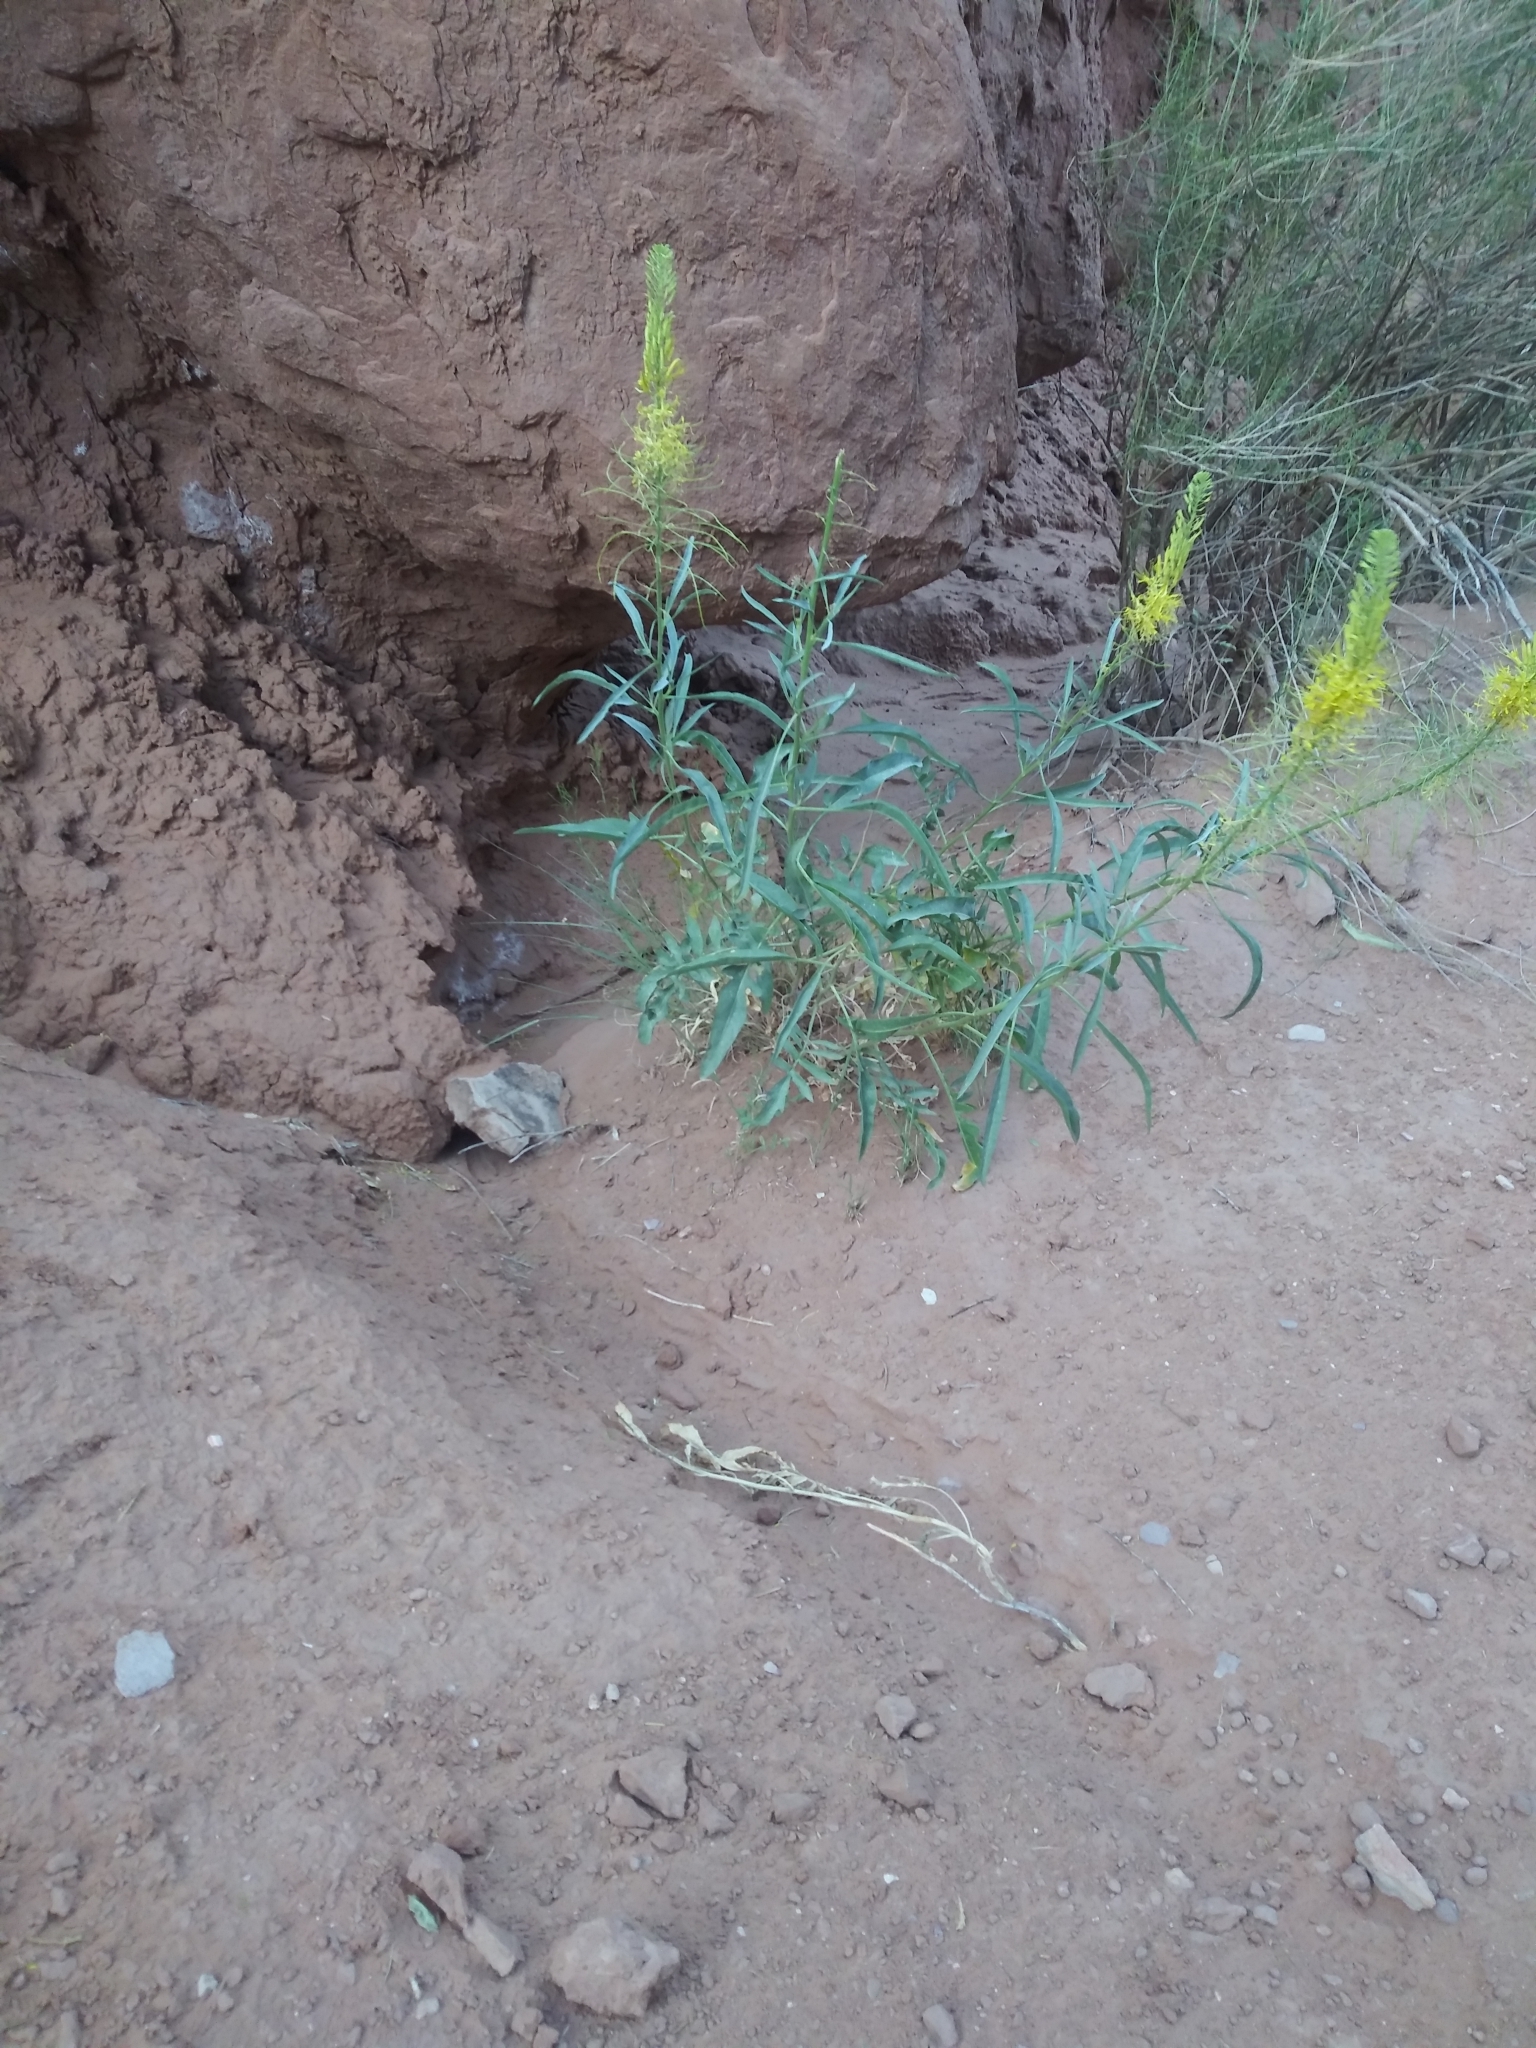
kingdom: Plantae
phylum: Tracheophyta
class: Magnoliopsida
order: Brassicales
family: Brassicaceae
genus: Stanleya
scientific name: Stanleya pinnata
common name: Prince's-plume
